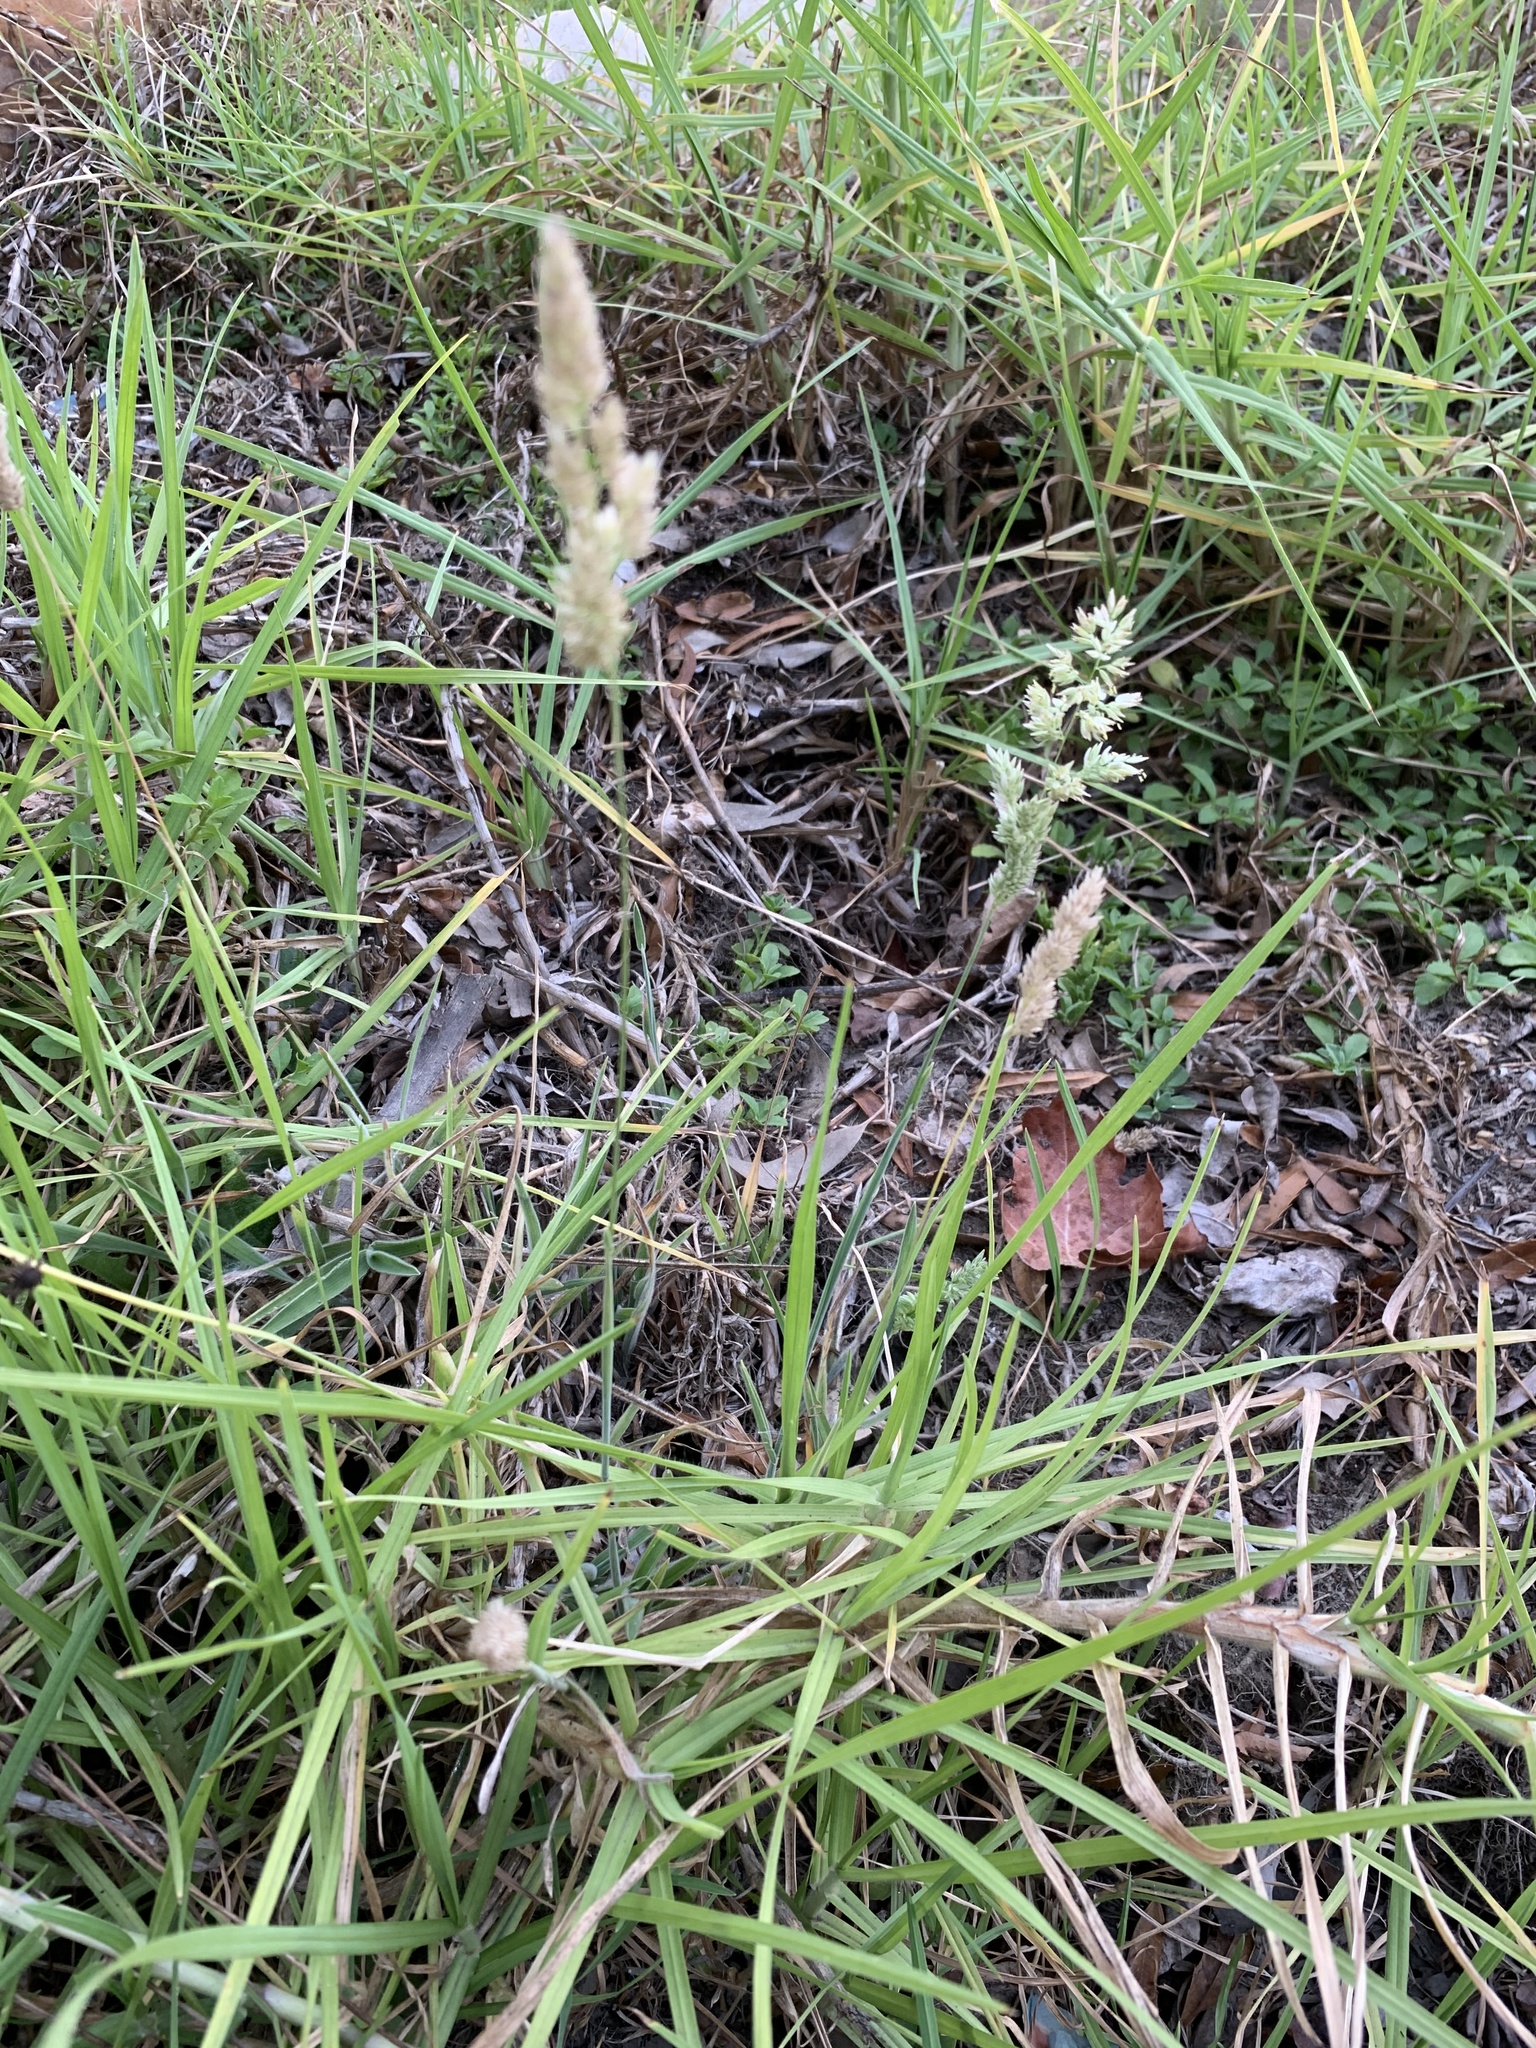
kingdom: Plantae
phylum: Tracheophyta
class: Liliopsida
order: Poales
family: Poaceae
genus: Holcus
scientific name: Holcus lanatus
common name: Yorkshire-fog
